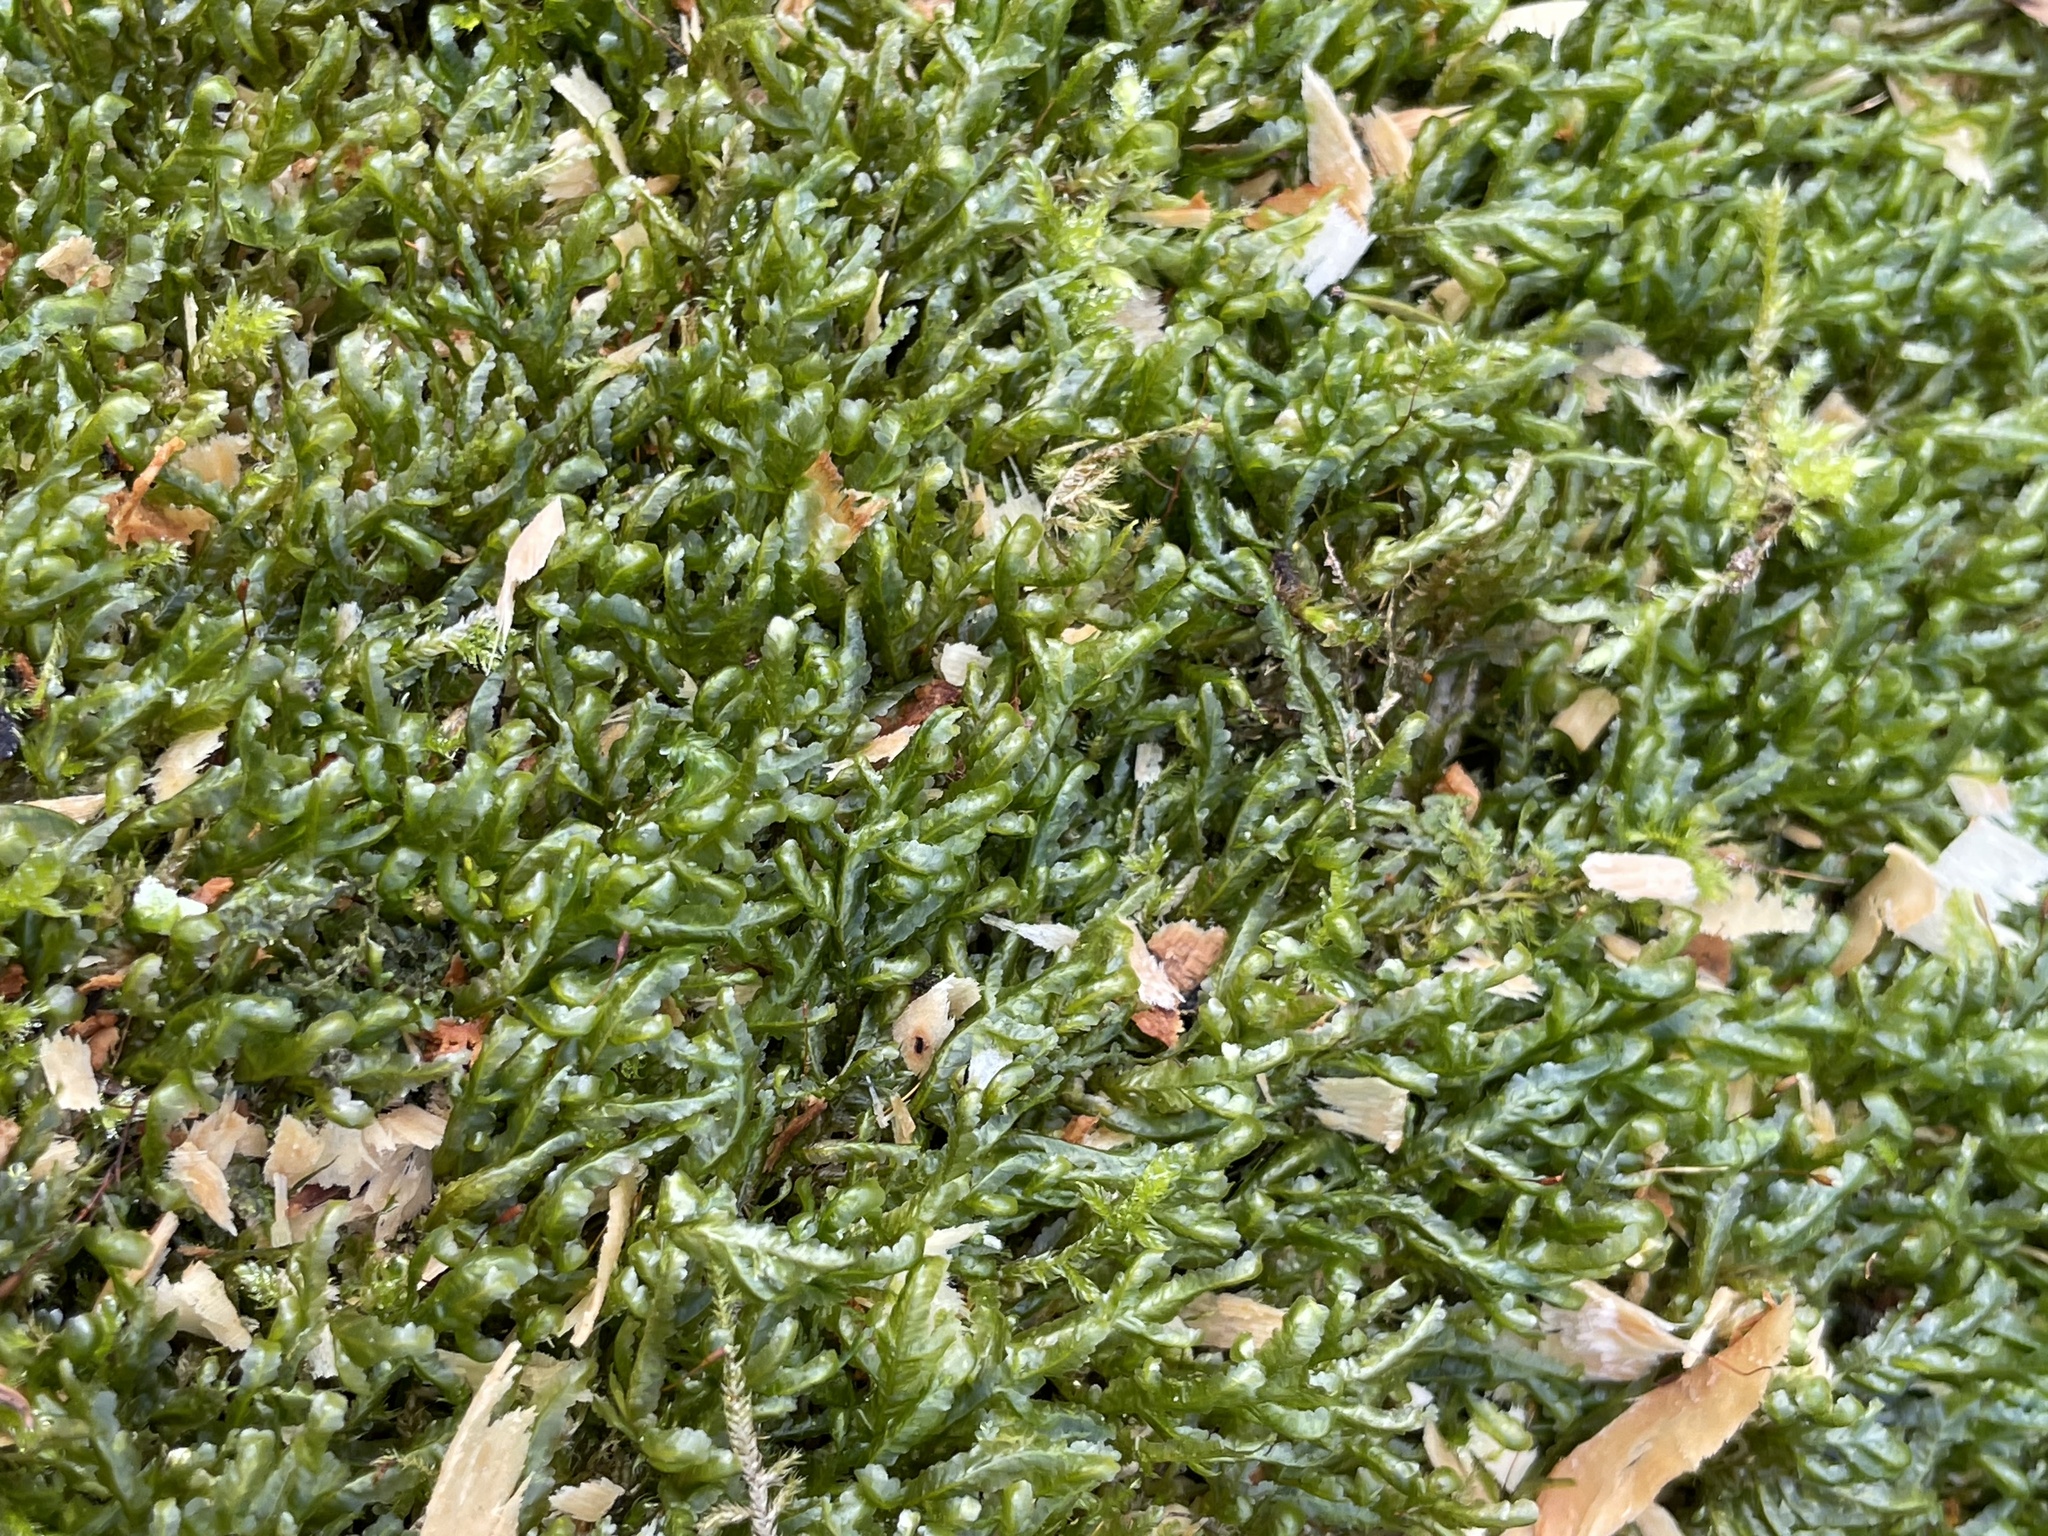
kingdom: Plantae
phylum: Bryophyta
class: Bryopsida
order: Hypnales
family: Neckeraceae
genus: Homalia
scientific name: Homalia trichomanoides
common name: Lime homalia moss
